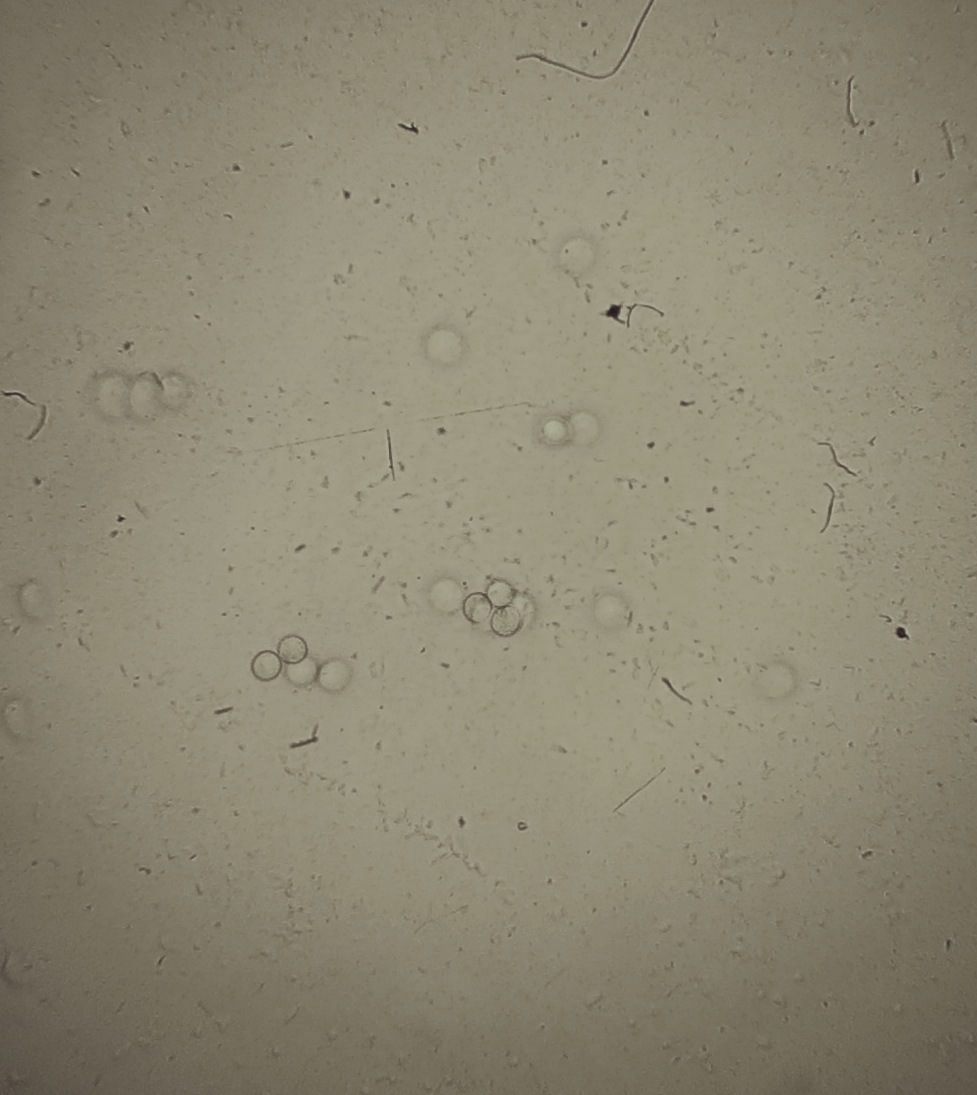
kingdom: Fungi
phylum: Basidiomycota
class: Agaricomycetes
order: Agaricales
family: Tricholomataceae
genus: Conchomyces
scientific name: Conchomyces bursiformis
